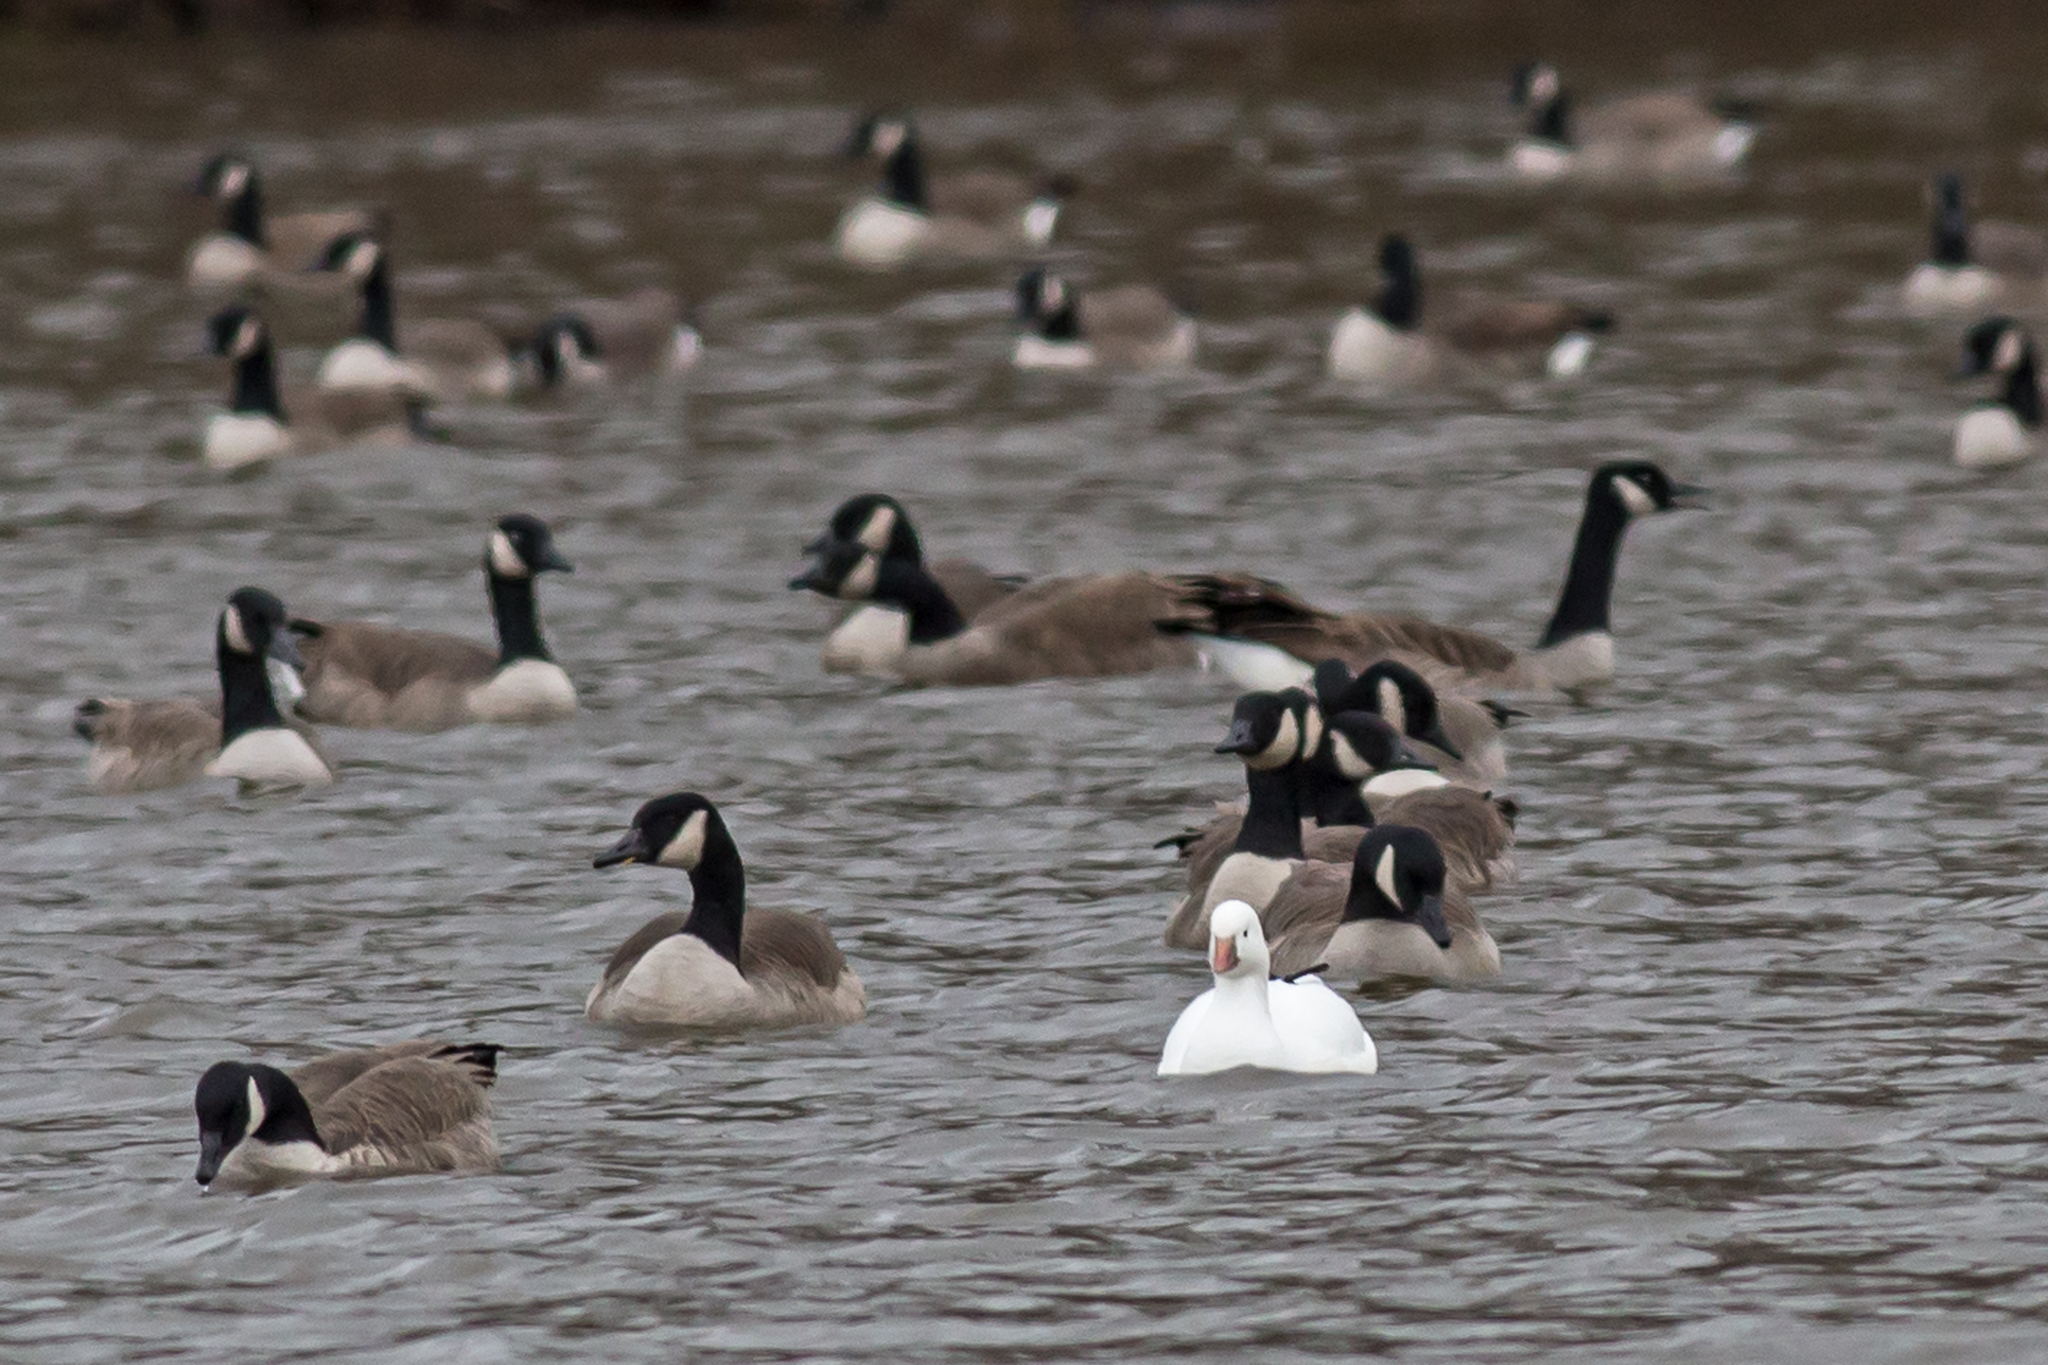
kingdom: Animalia
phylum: Chordata
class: Aves
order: Anseriformes
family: Anatidae
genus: Anser
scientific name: Anser rossii
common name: Ross's goose
